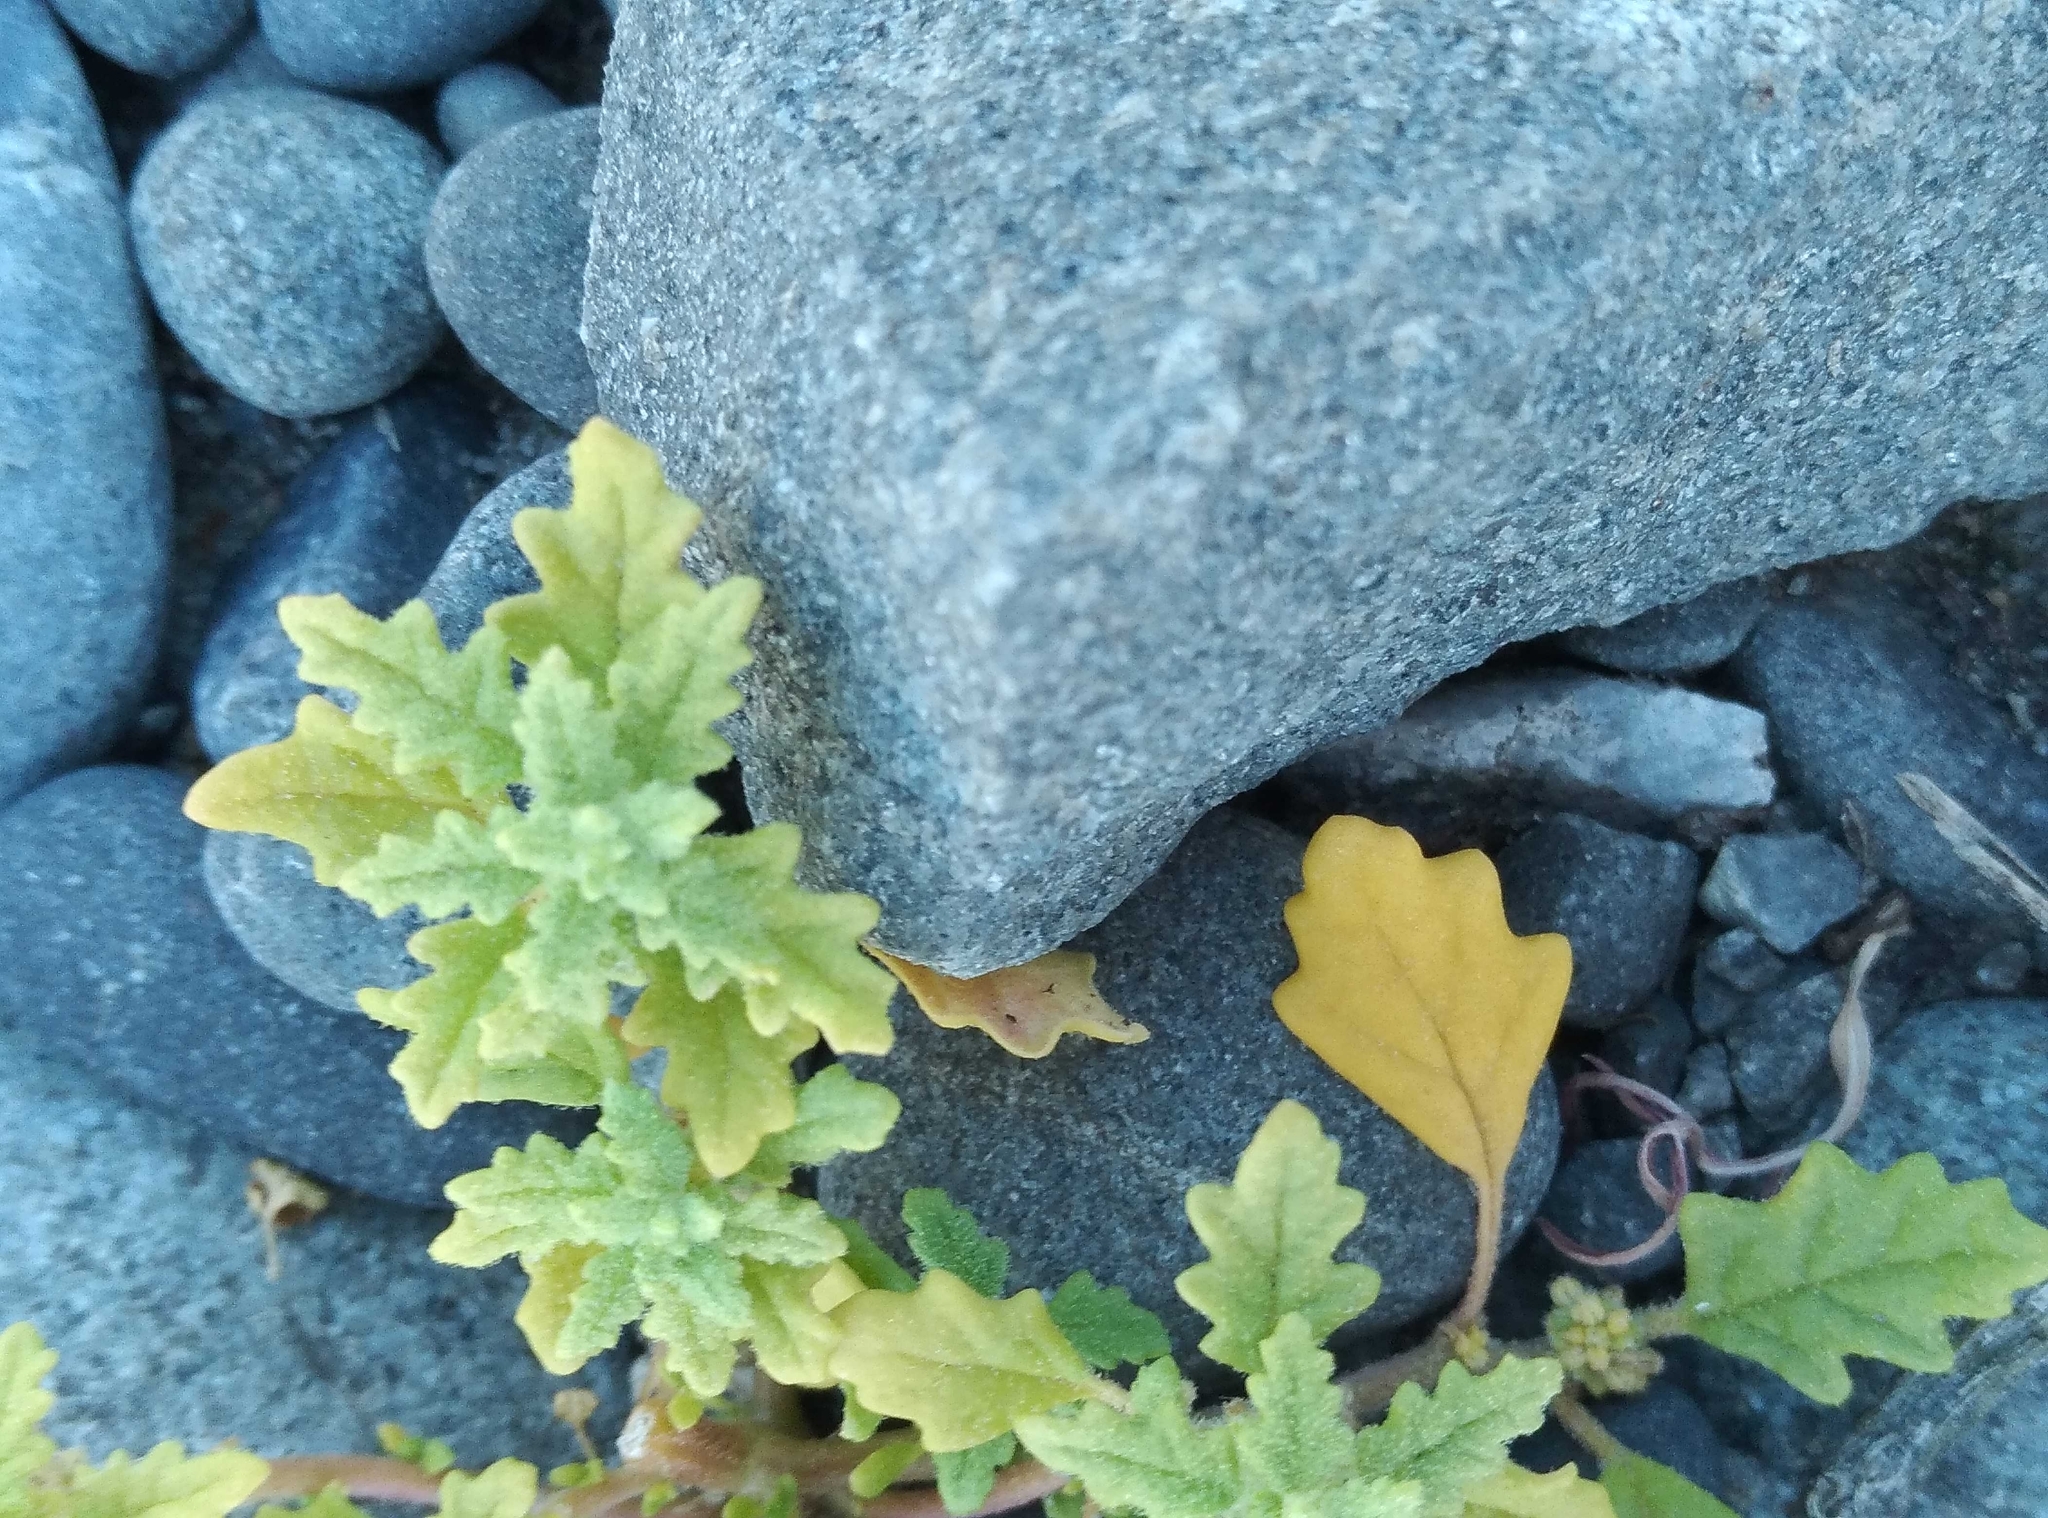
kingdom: Plantae
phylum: Tracheophyta
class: Magnoliopsida
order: Caryophyllales
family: Amaranthaceae
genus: Dysphania
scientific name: Dysphania pumilio
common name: Clammy goosefoot
